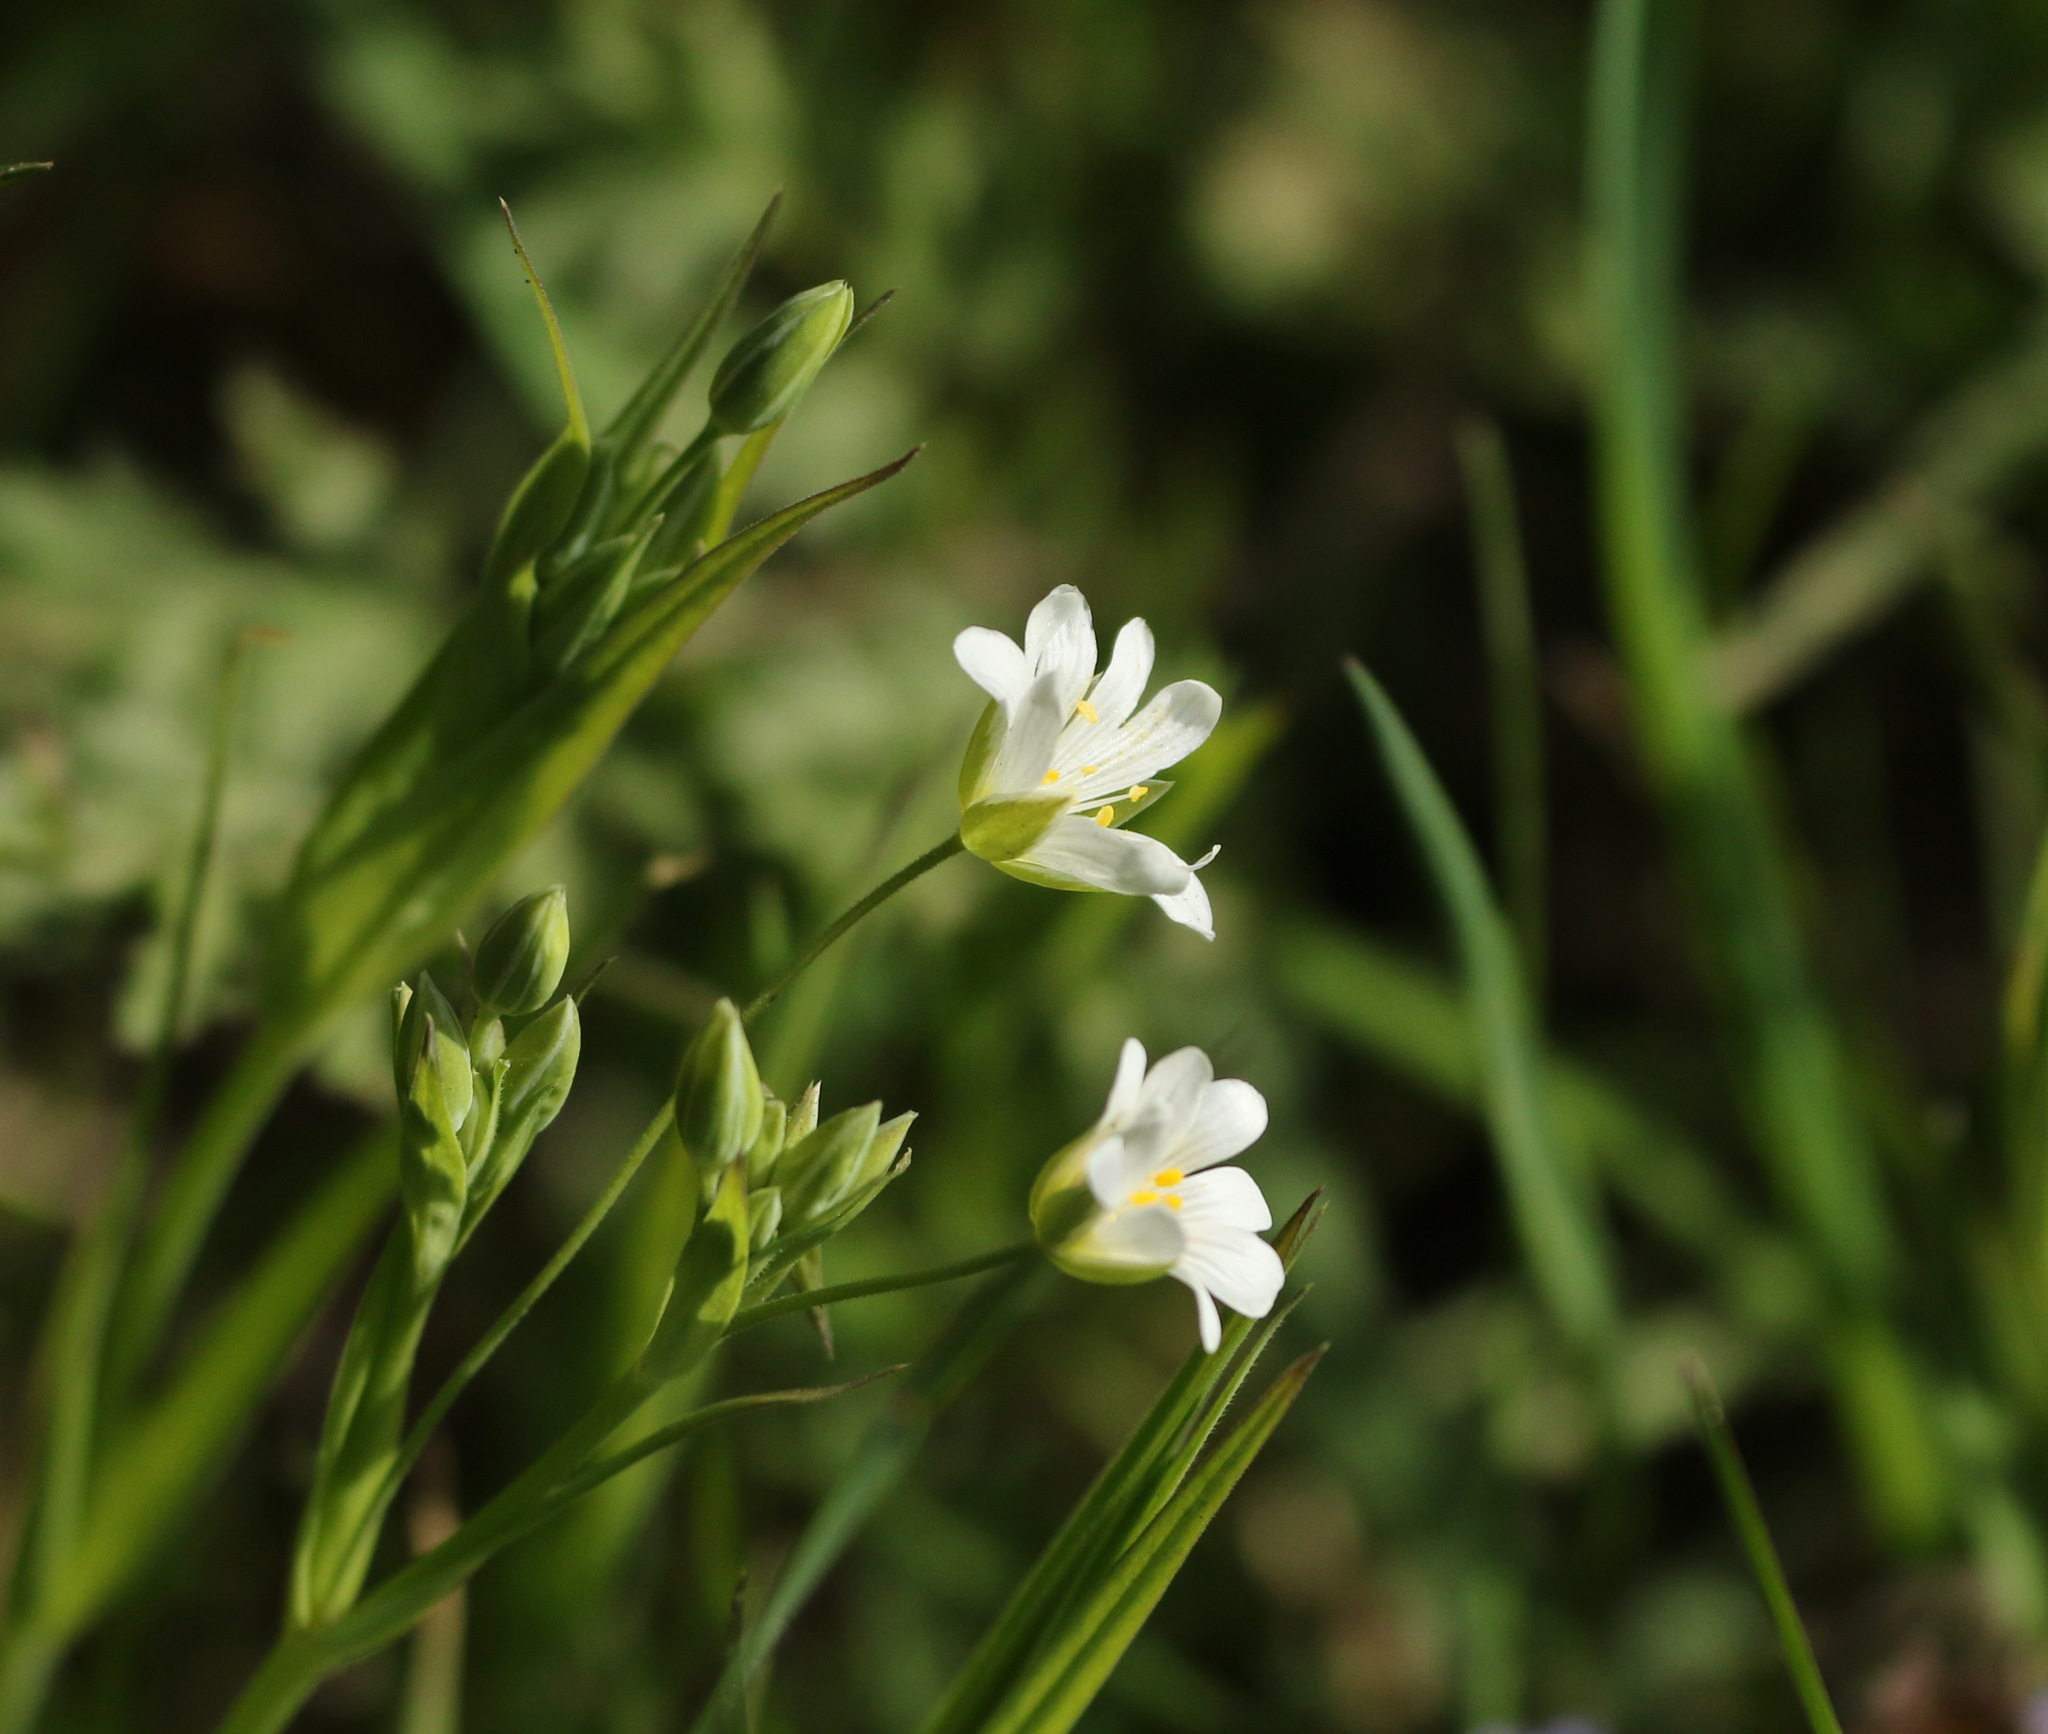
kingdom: Plantae
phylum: Tracheophyta
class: Magnoliopsida
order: Caryophyllales
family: Caryophyllaceae
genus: Rabelera
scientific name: Rabelera holostea
